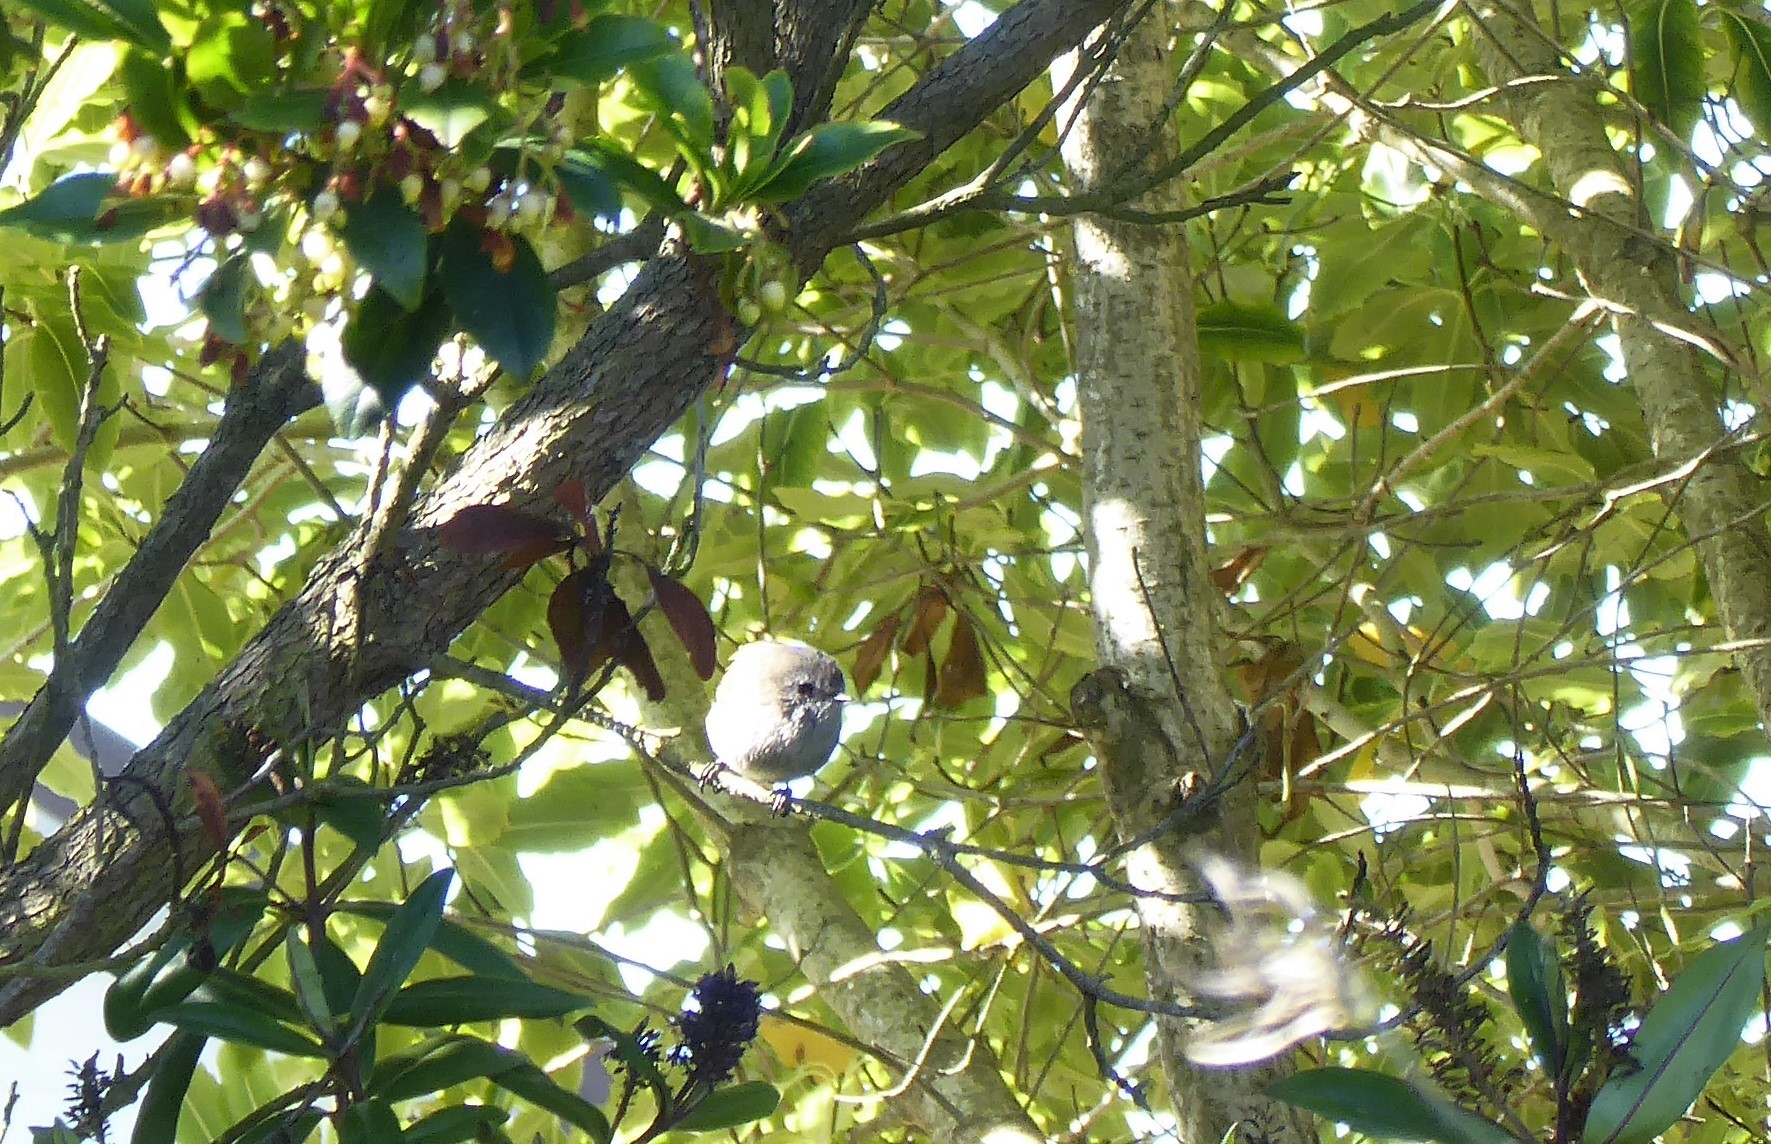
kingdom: Animalia
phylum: Chordata
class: Aves
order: Passeriformes
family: Acanthizidae
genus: Gerygone
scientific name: Gerygone igata
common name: Grey gerygone
